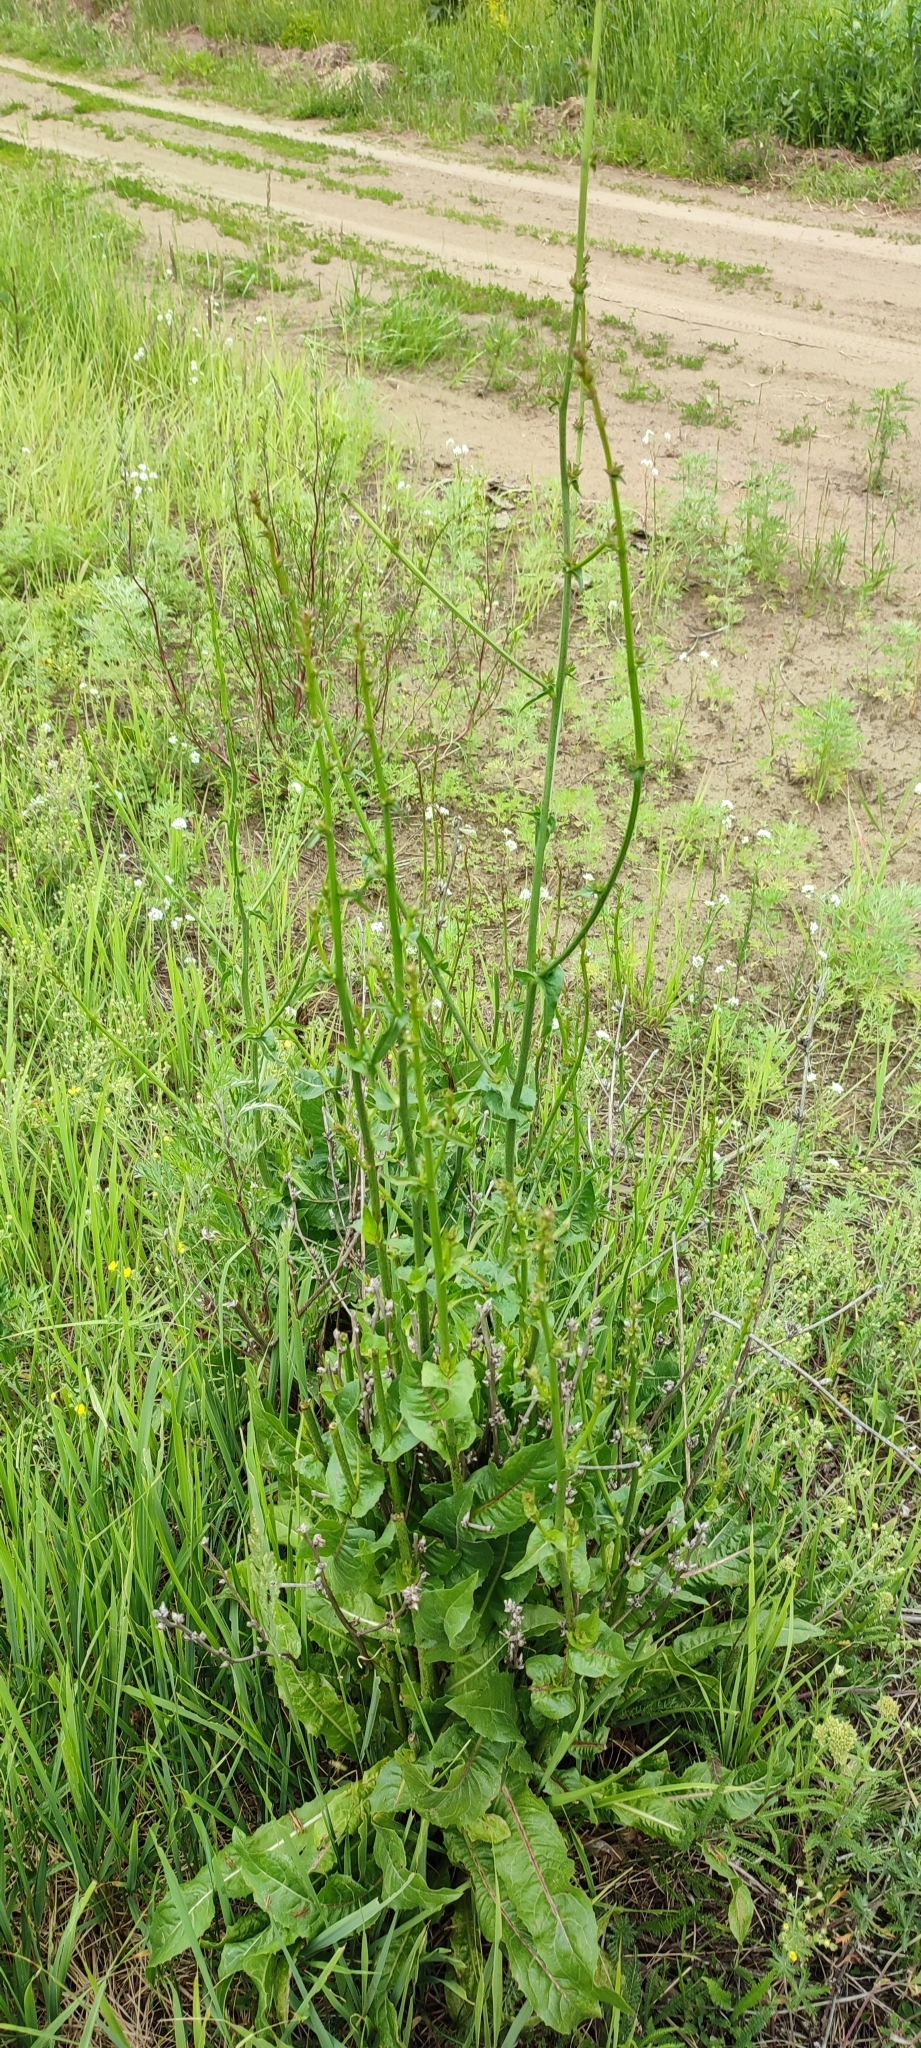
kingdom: Plantae
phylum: Tracheophyta
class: Magnoliopsida
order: Asterales
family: Asteraceae
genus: Cichorium
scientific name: Cichorium intybus
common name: Chicory
